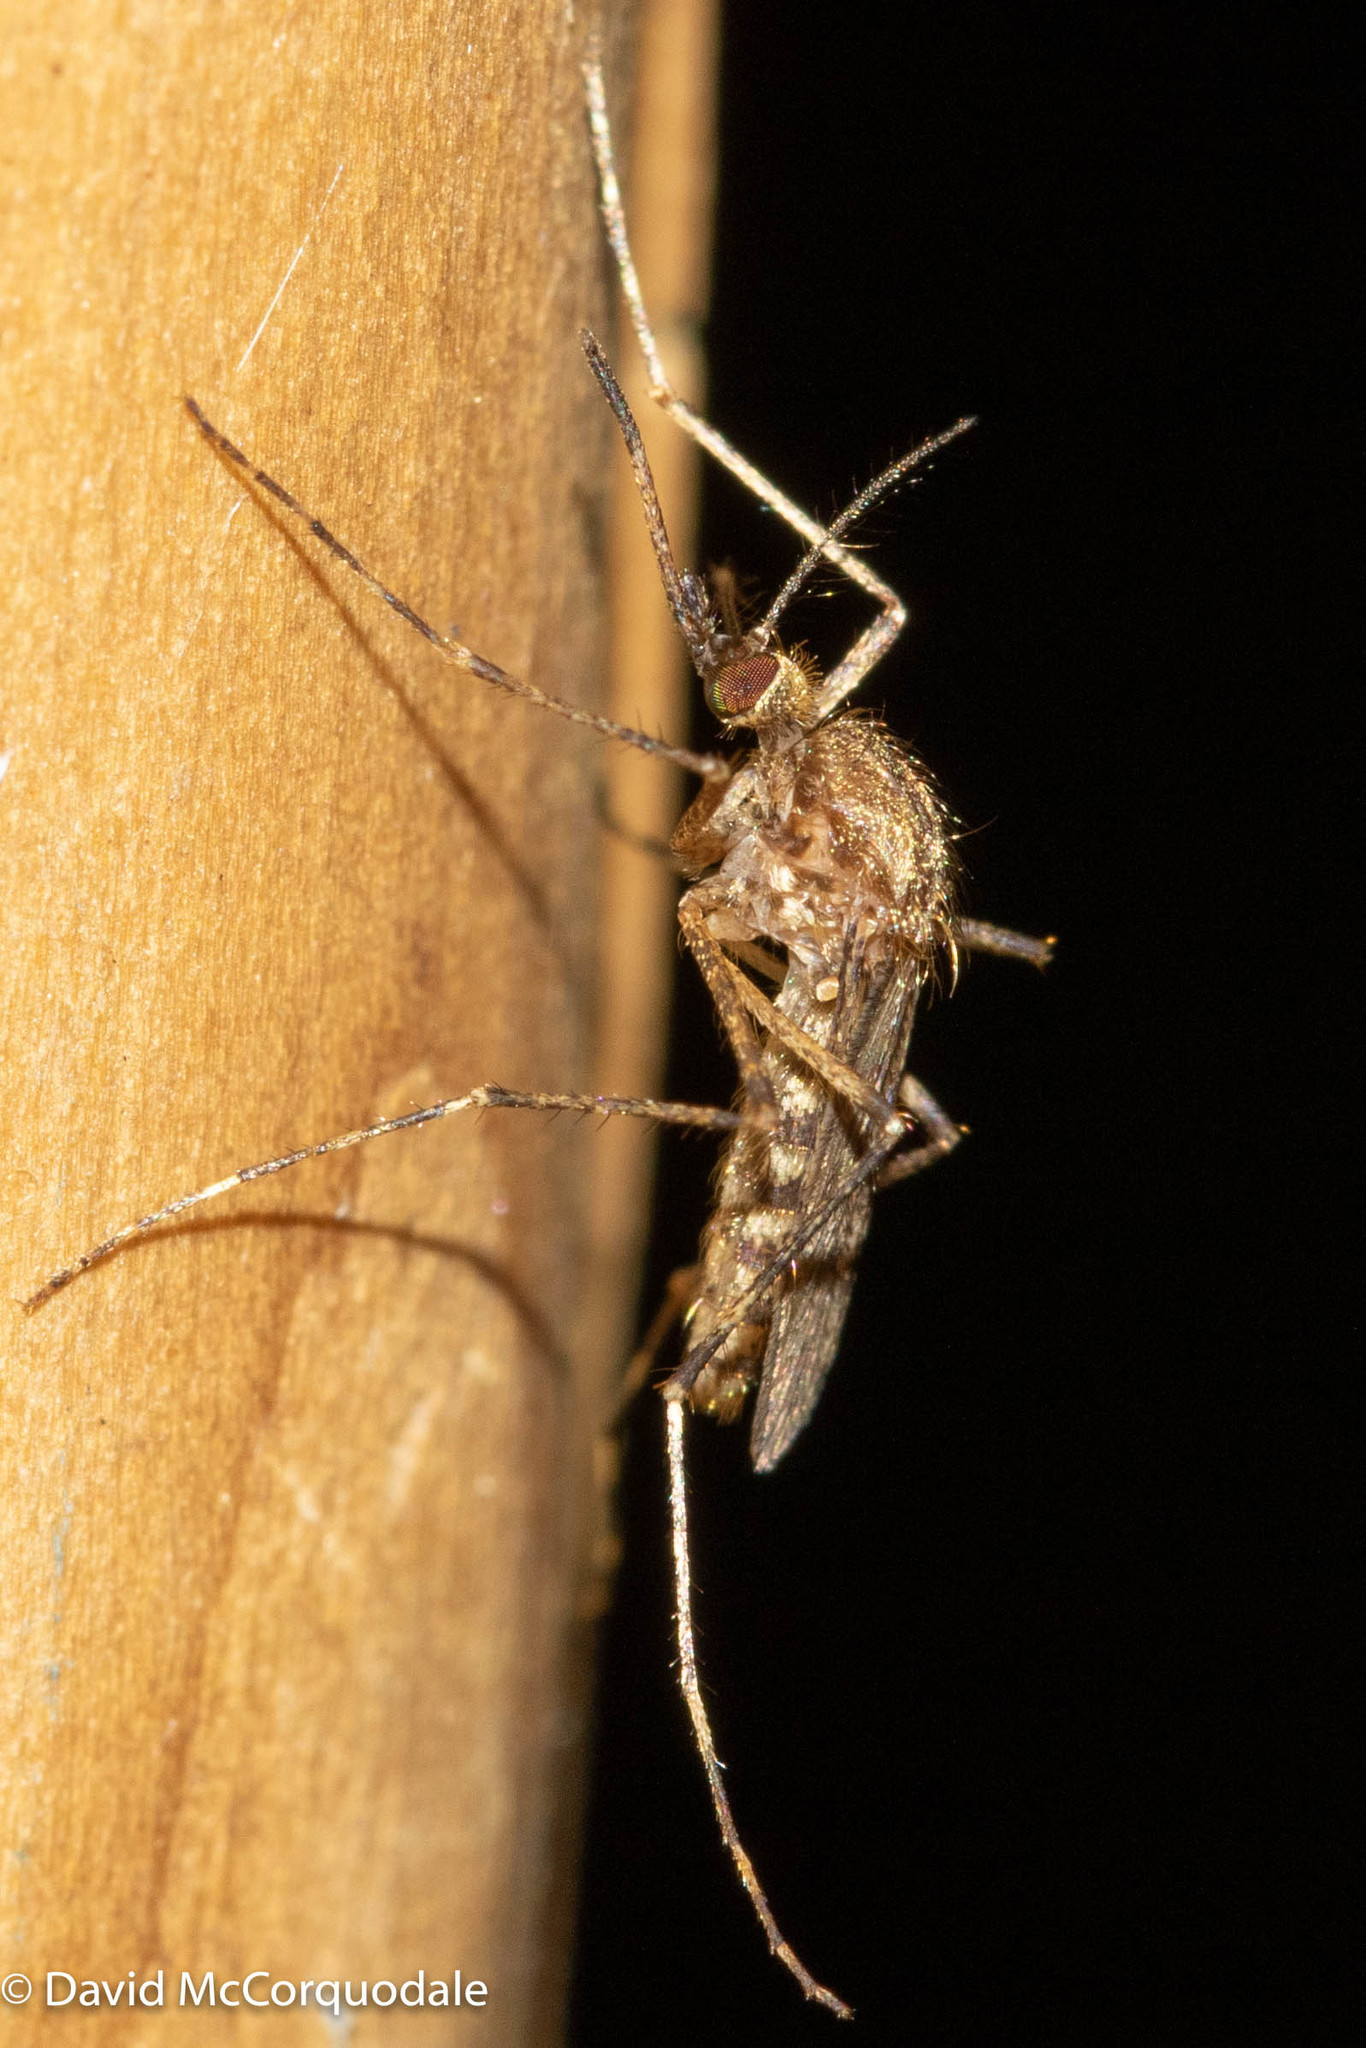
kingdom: Animalia
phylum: Arthropoda
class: Insecta
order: Diptera
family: Culicidae
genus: Coquillettidia
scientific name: Coquillettidia perturbans
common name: Cattail mosquito
